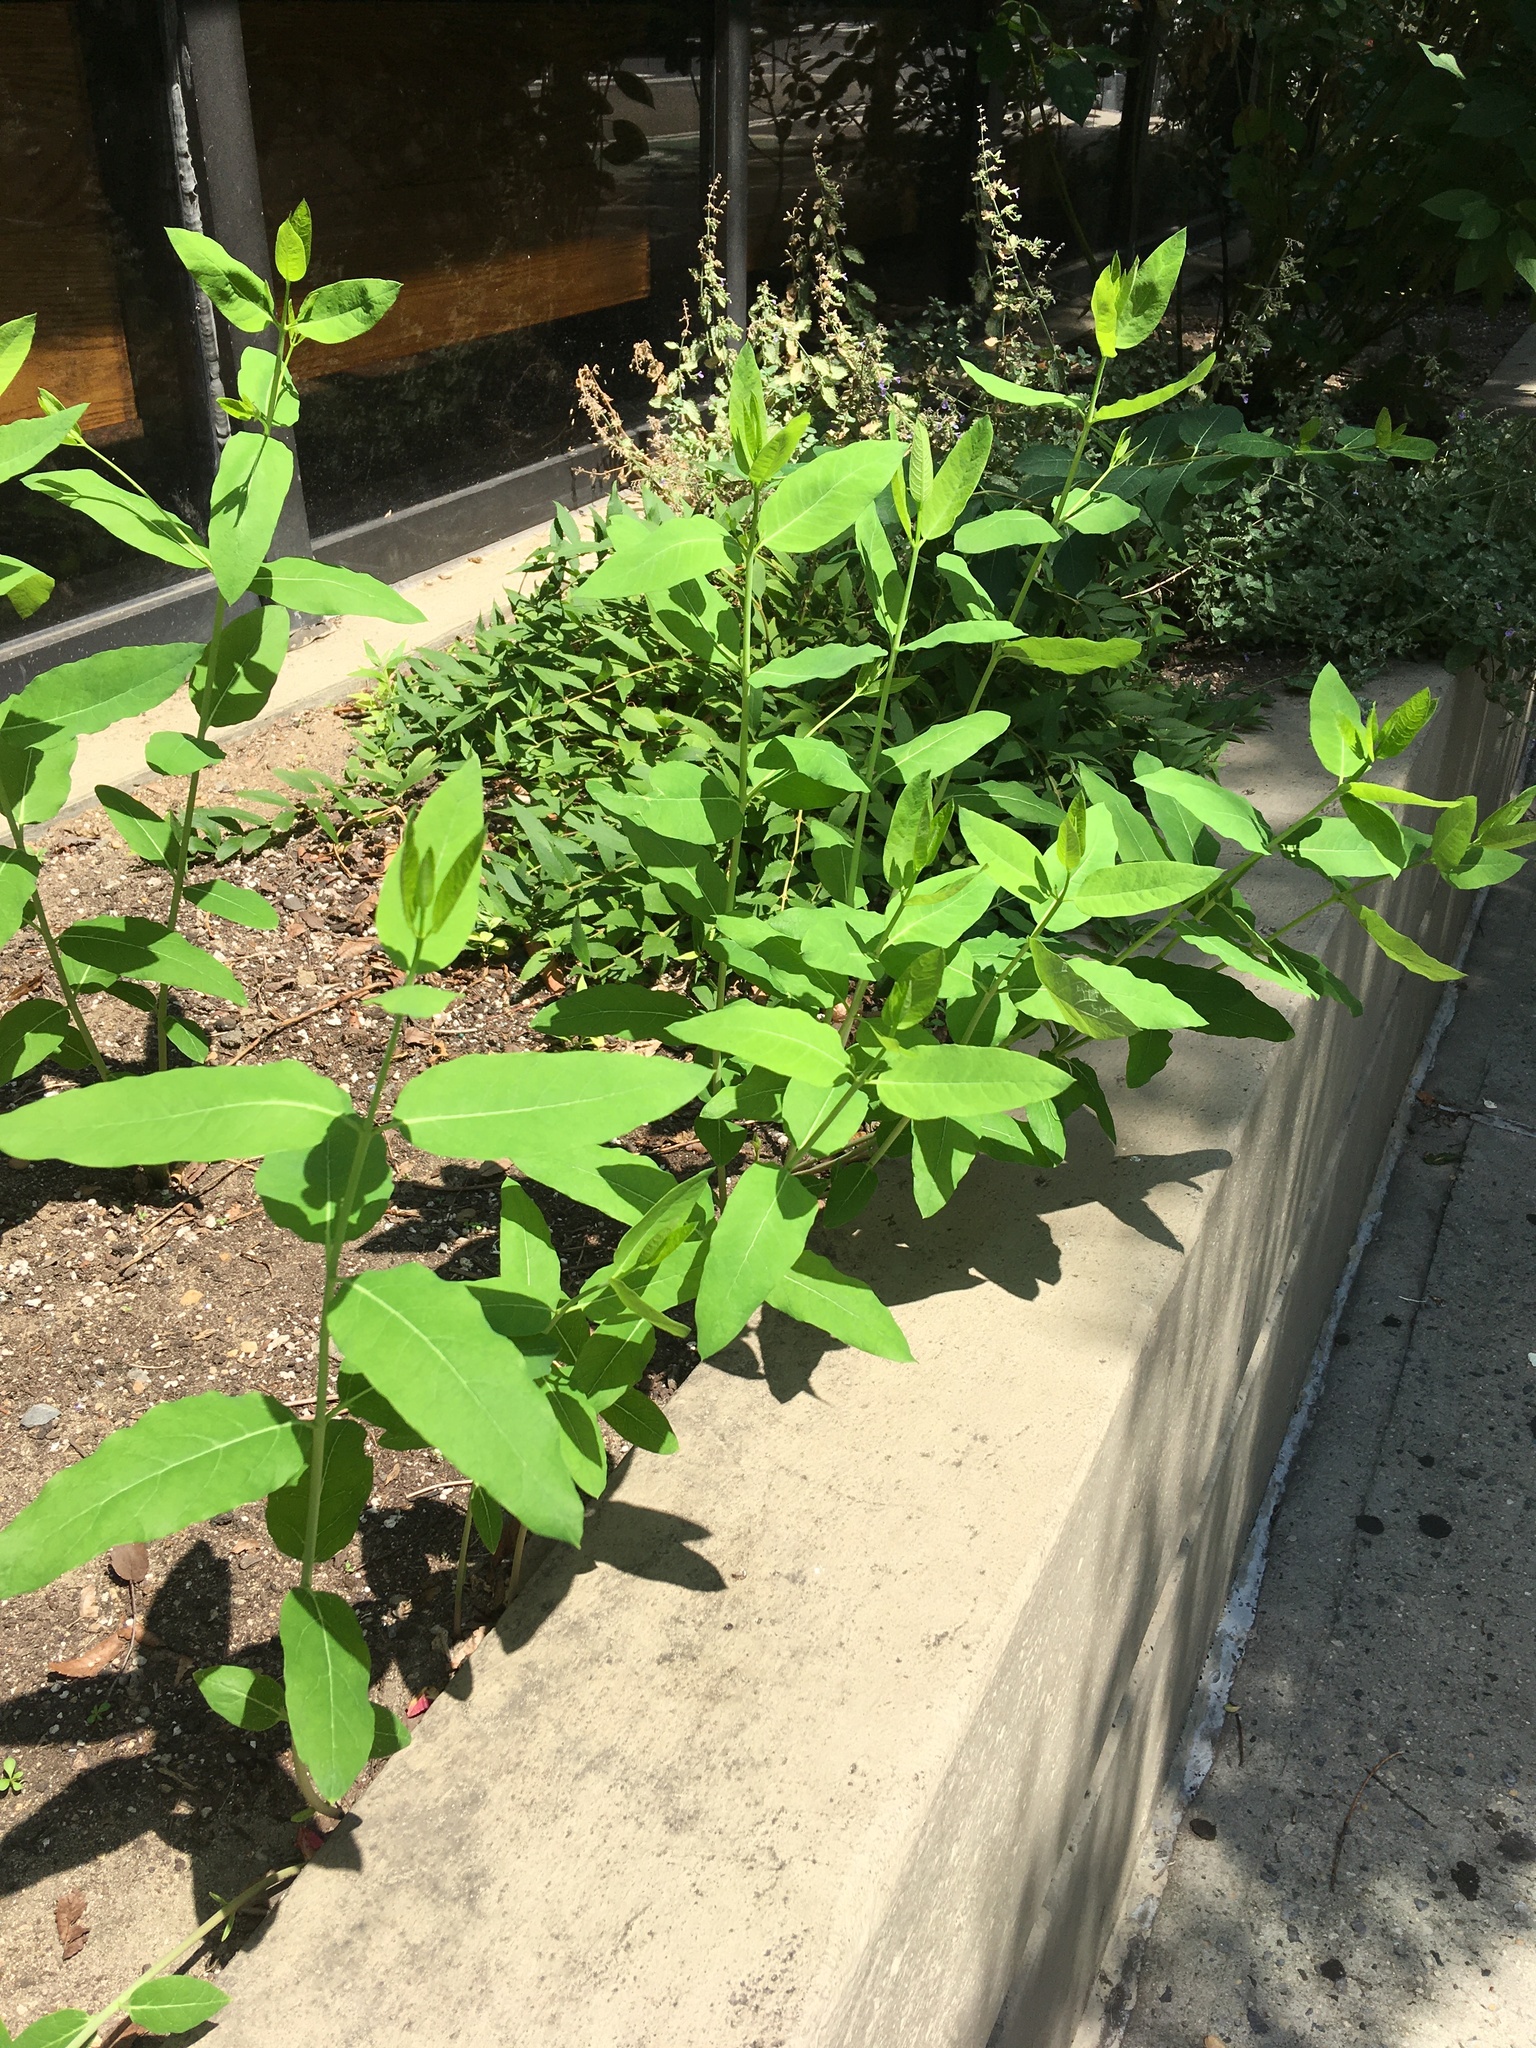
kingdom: Plantae
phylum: Tracheophyta
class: Magnoliopsida
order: Gentianales
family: Apocynaceae
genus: Apocynum
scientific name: Apocynum cannabinum
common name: Hemp dogbane
